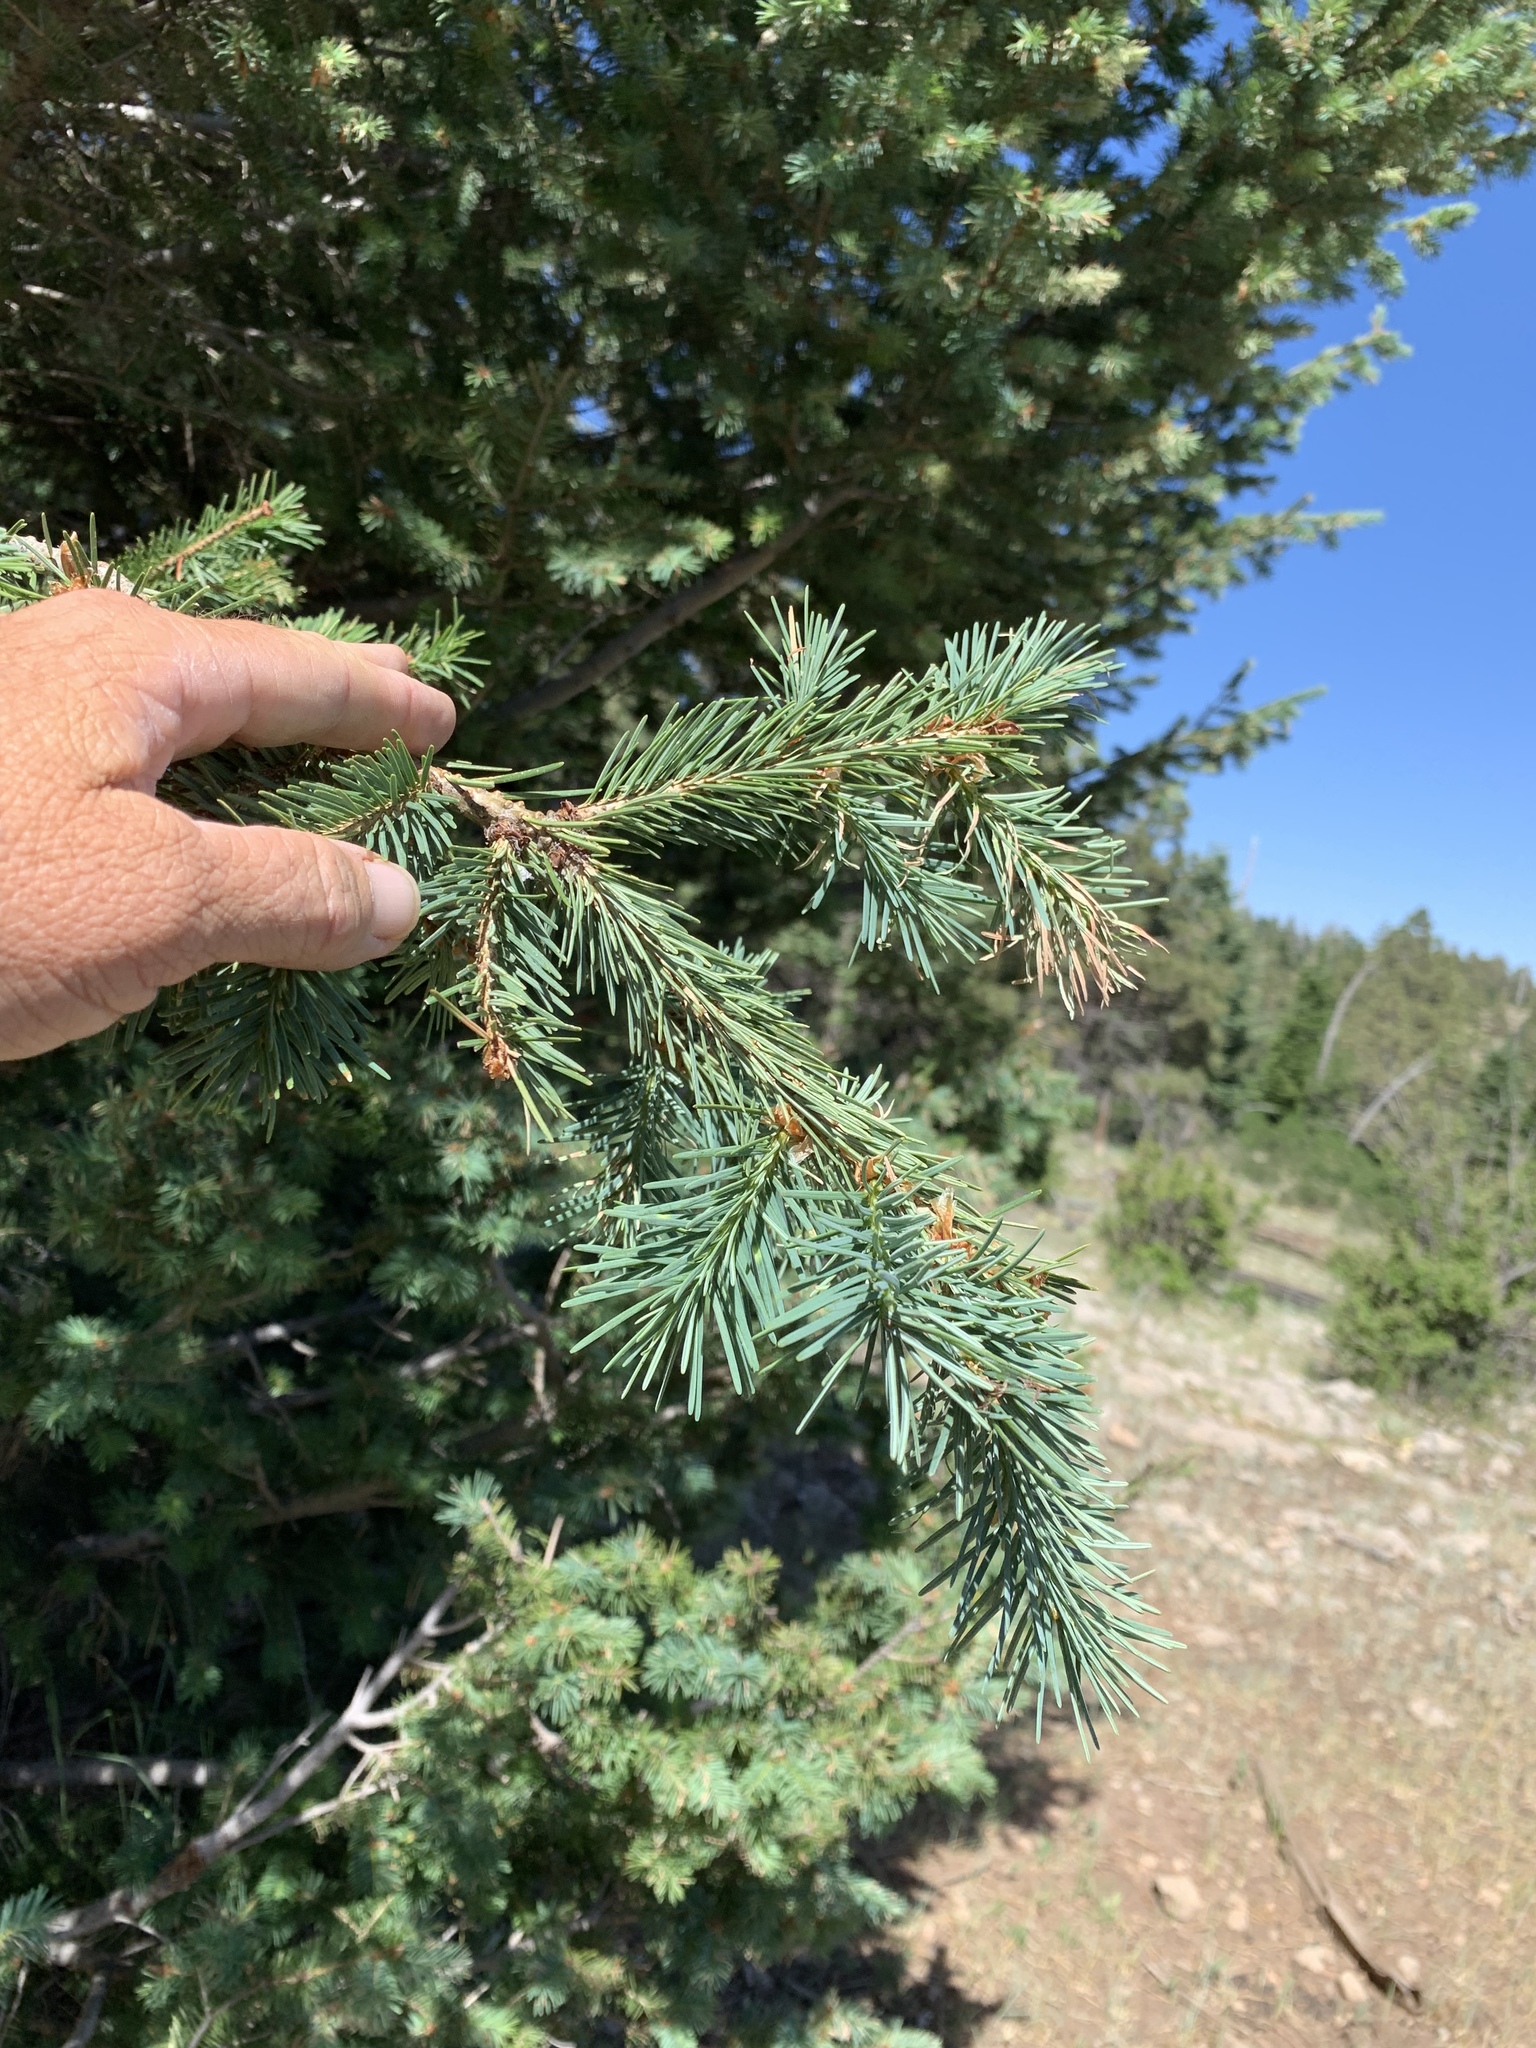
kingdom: Plantae
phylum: Tracheophyta
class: Pinopsida
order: Pinales
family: Pinaceae
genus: Pseudotsuga
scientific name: Pseudotsuga menziesii
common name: Douglas fir
